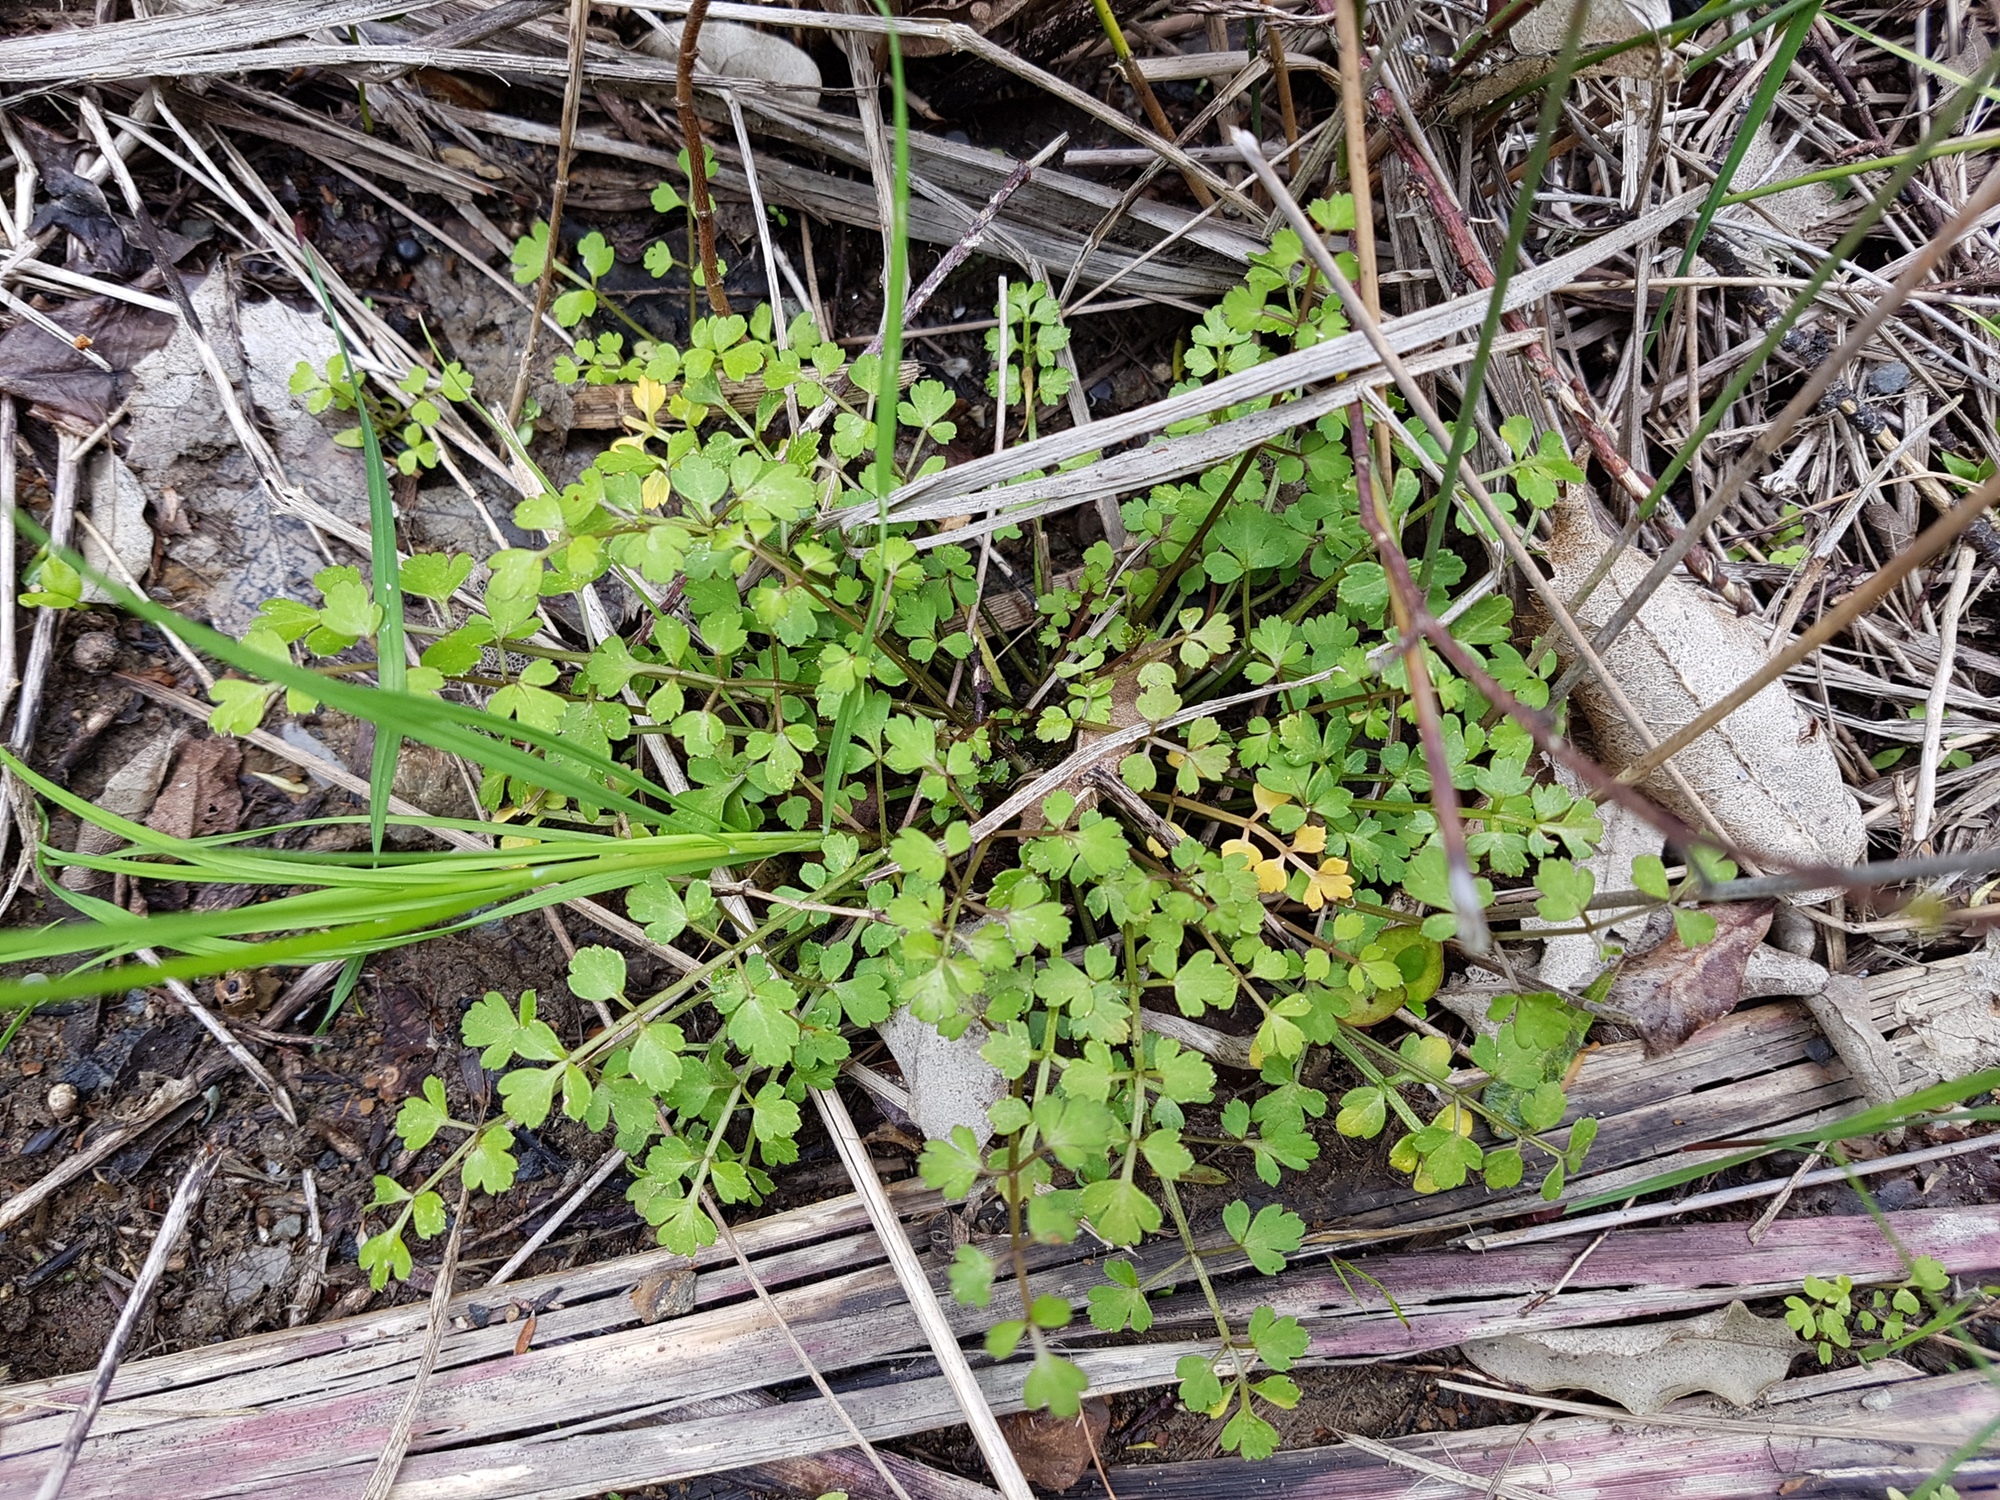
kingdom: Plantae
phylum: Tracheophyta
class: Magnoliopsida
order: Apiales
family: Apiaceae
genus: Apium
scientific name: Apium prostratum
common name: Prostrate marshwort
